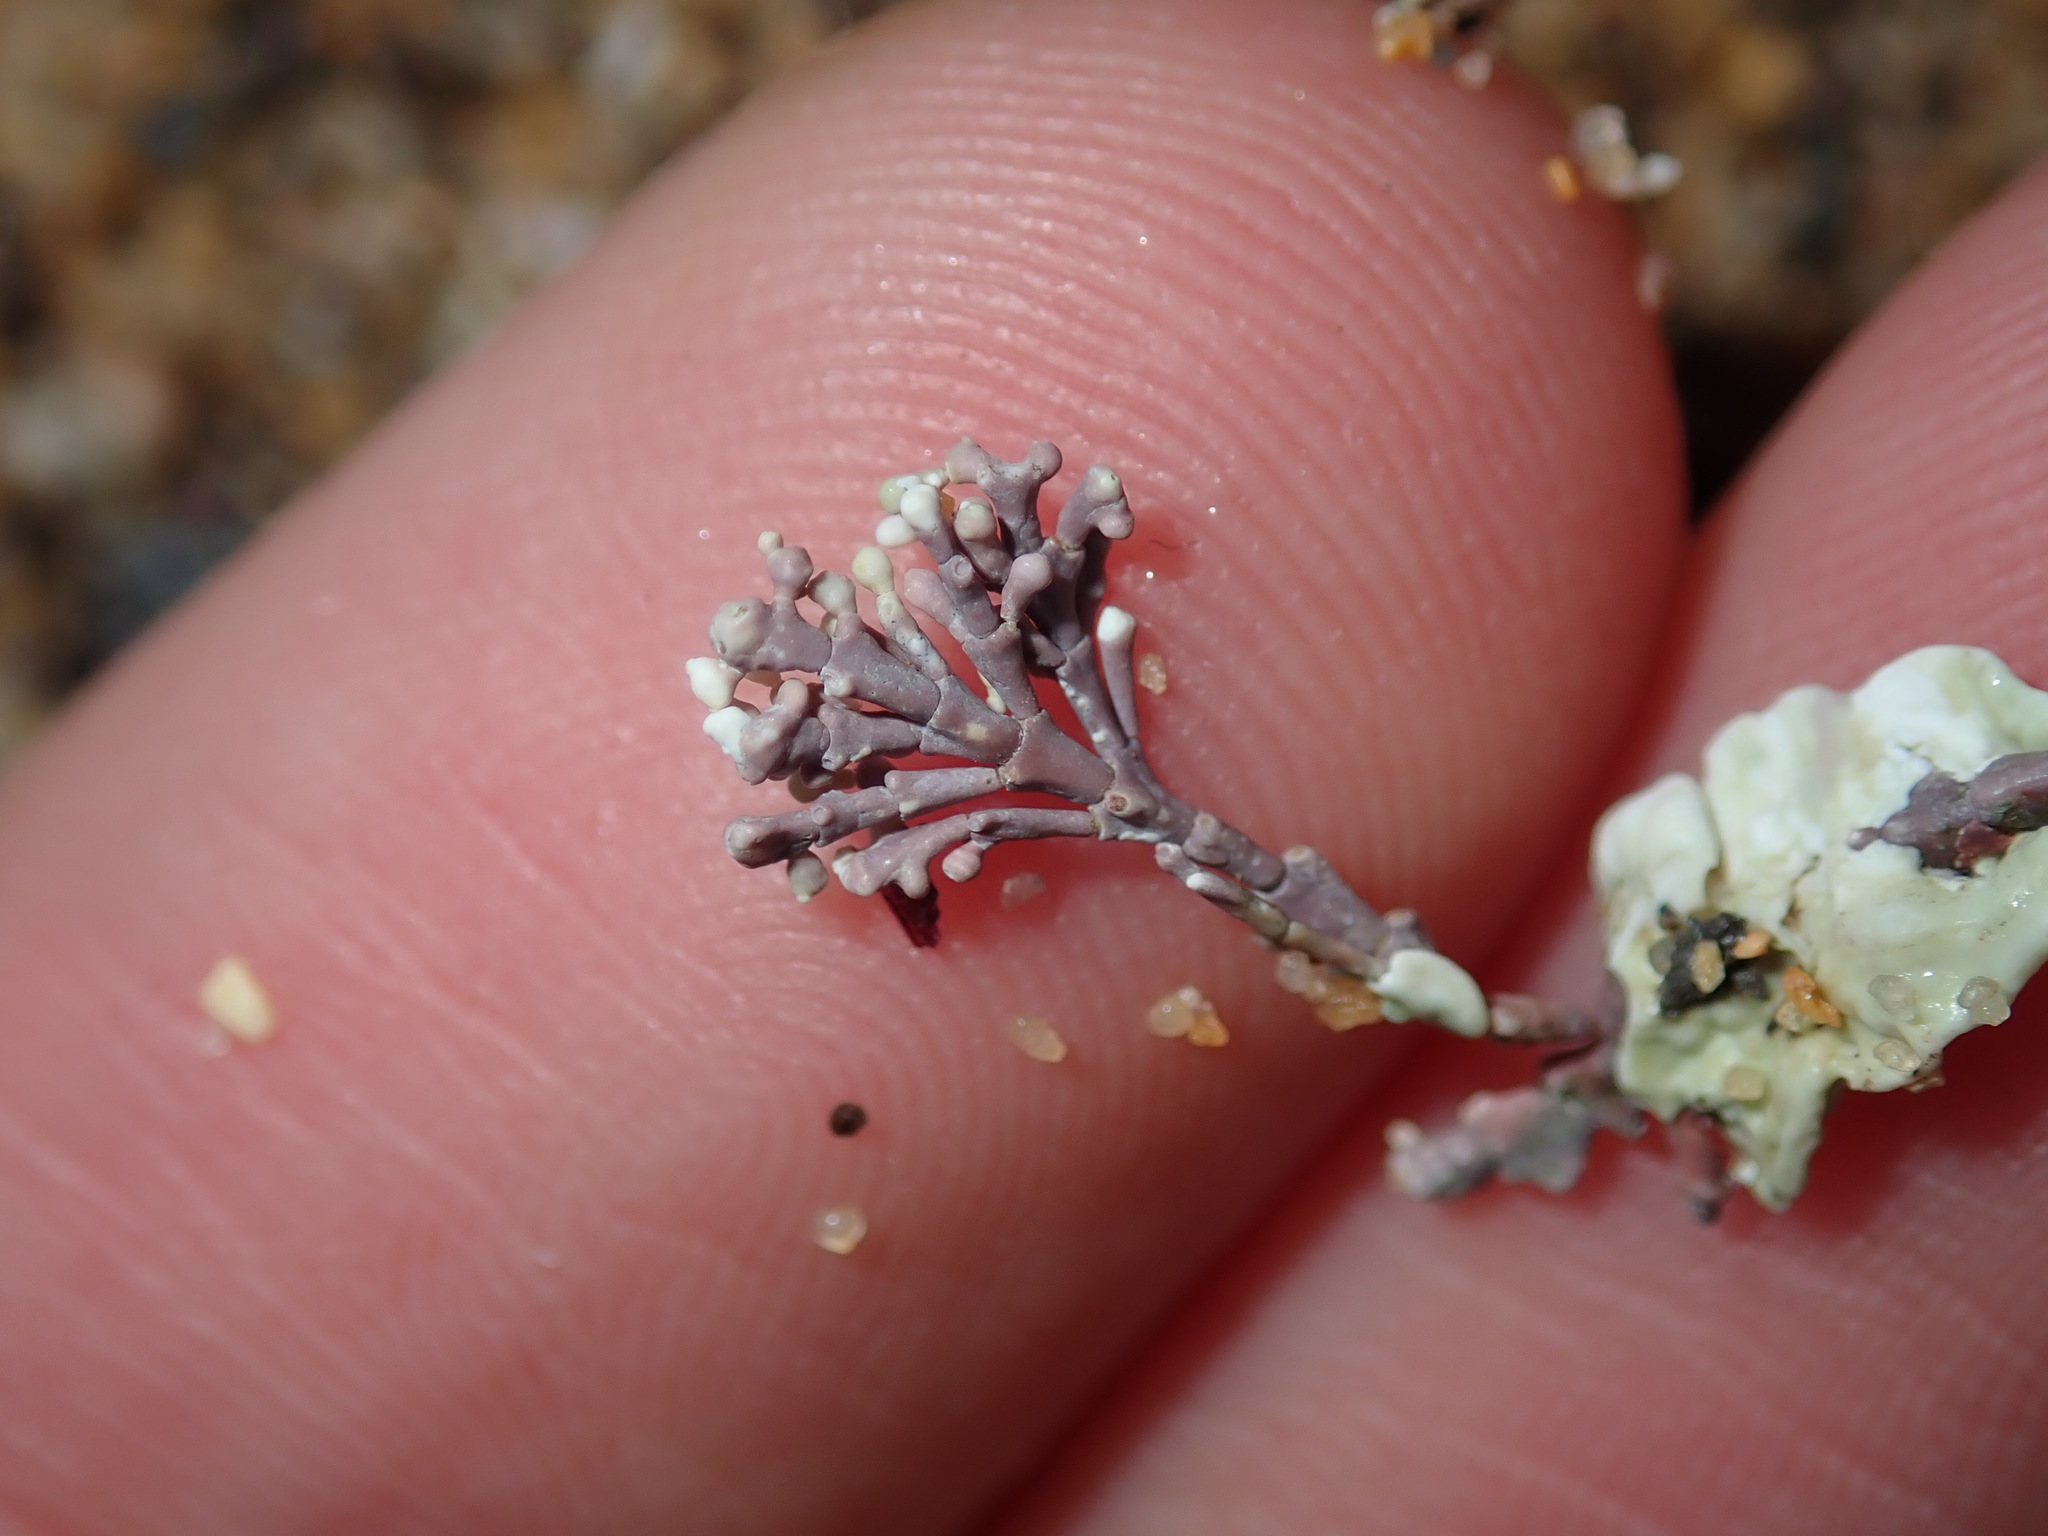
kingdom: Plantae
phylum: Rhodophyta
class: Florideophyceae
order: Corallinales
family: Corallinaceae
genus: Corallina
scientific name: Corallina officinalis
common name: Coral weed
